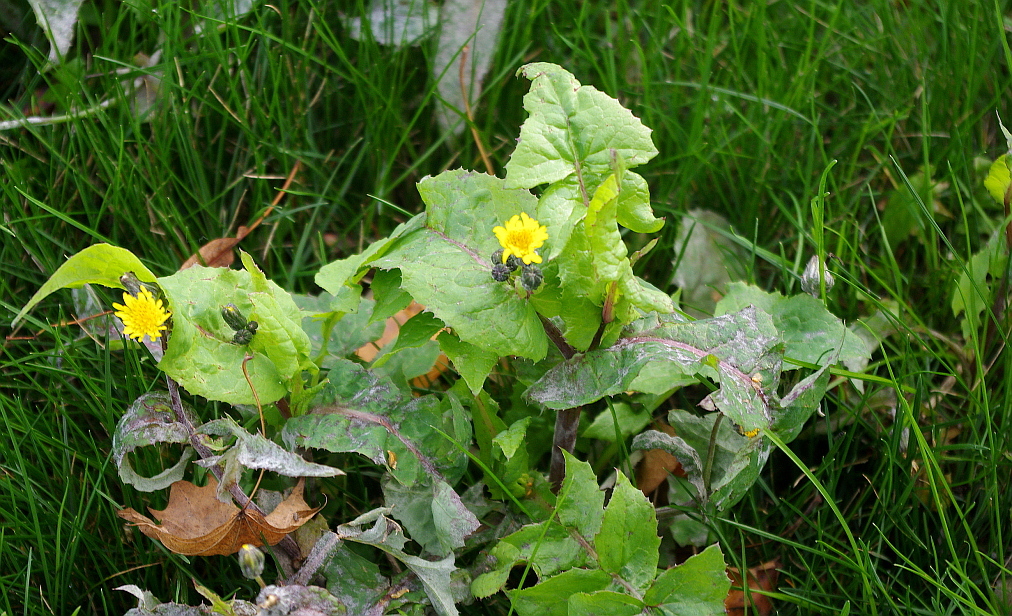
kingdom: Plantae
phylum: Tracheophyta
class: Magnoliopsida
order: Asterales
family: Asteraceae
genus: Sonchus
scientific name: Sonchus oleraceus
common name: Common sowthistle
